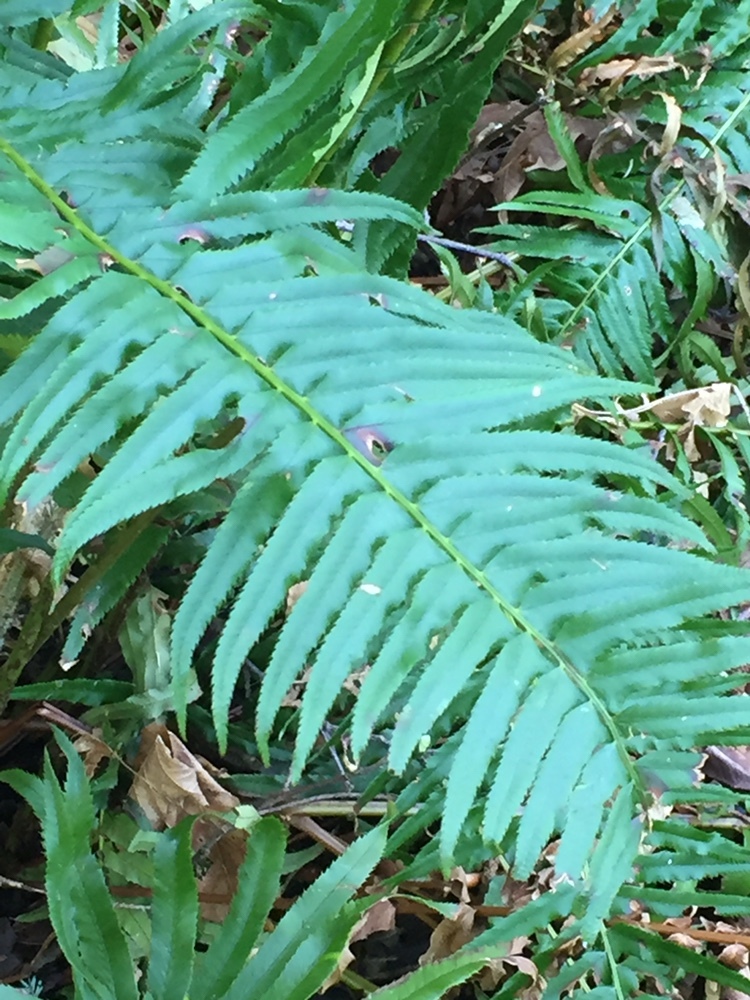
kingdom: Plantae
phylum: Tracheophyta
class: Polypodiopsida
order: Polypodiales
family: Dryopteridaceae
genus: Polystichum
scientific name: Polystichum munitum
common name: Western sword-fern
